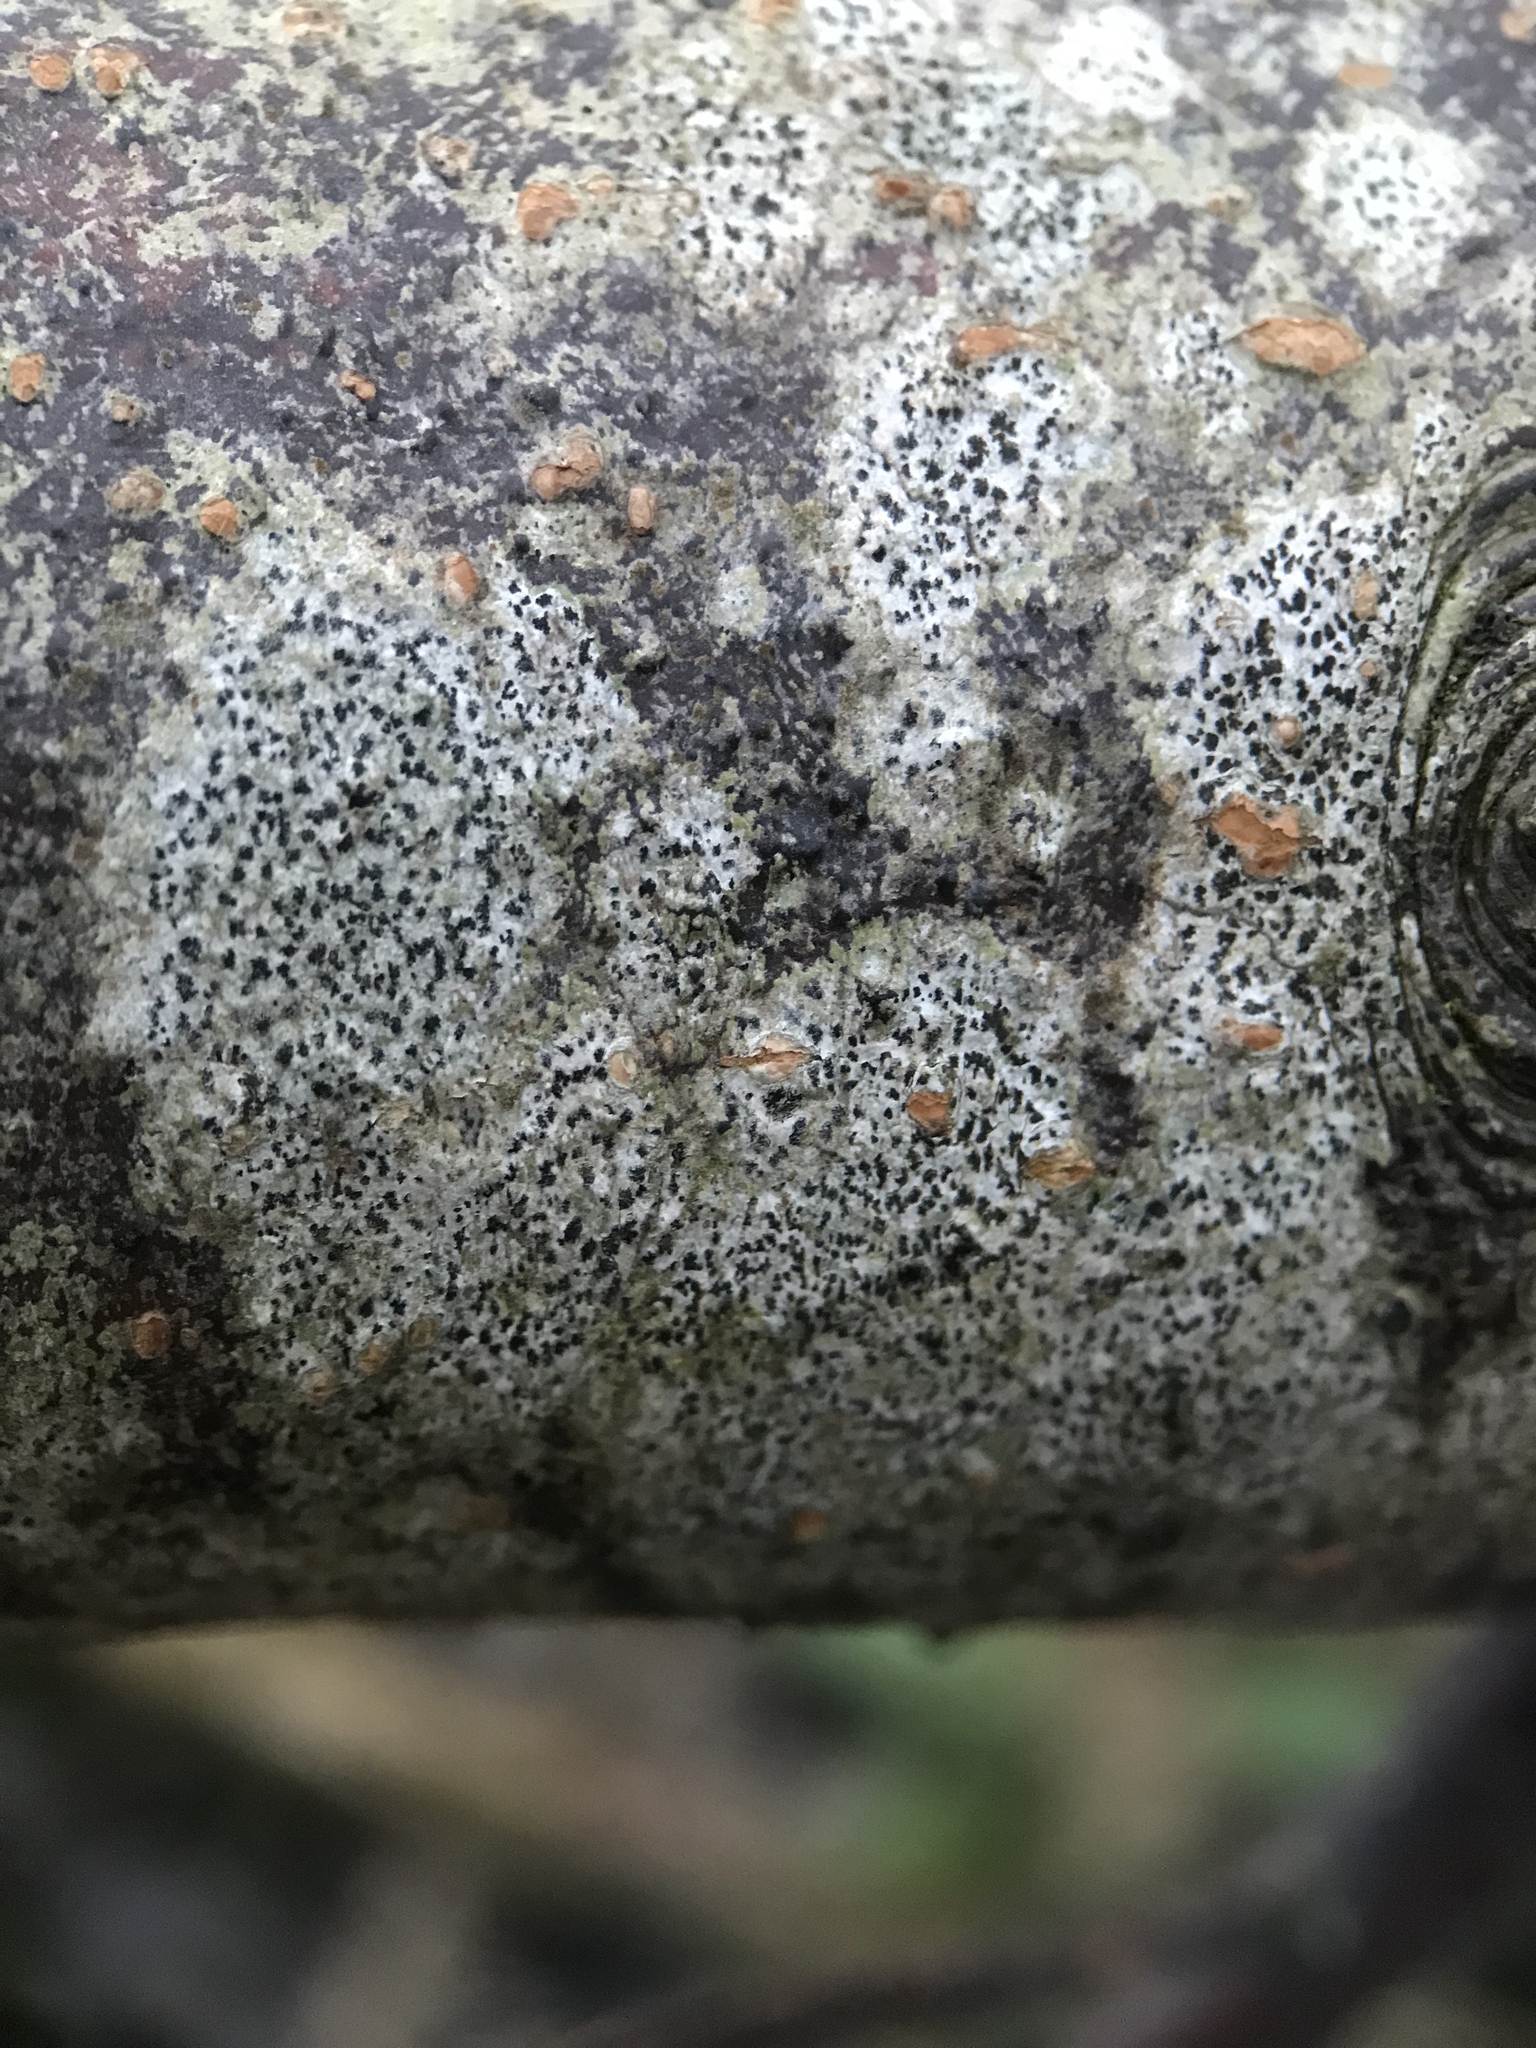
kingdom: Fungi
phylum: Ascomycota
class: Arthoniomycetes
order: Arthoniales
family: Arthoniaceae
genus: Arthonia
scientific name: Arthonia radiata
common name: Asterisk lichen
